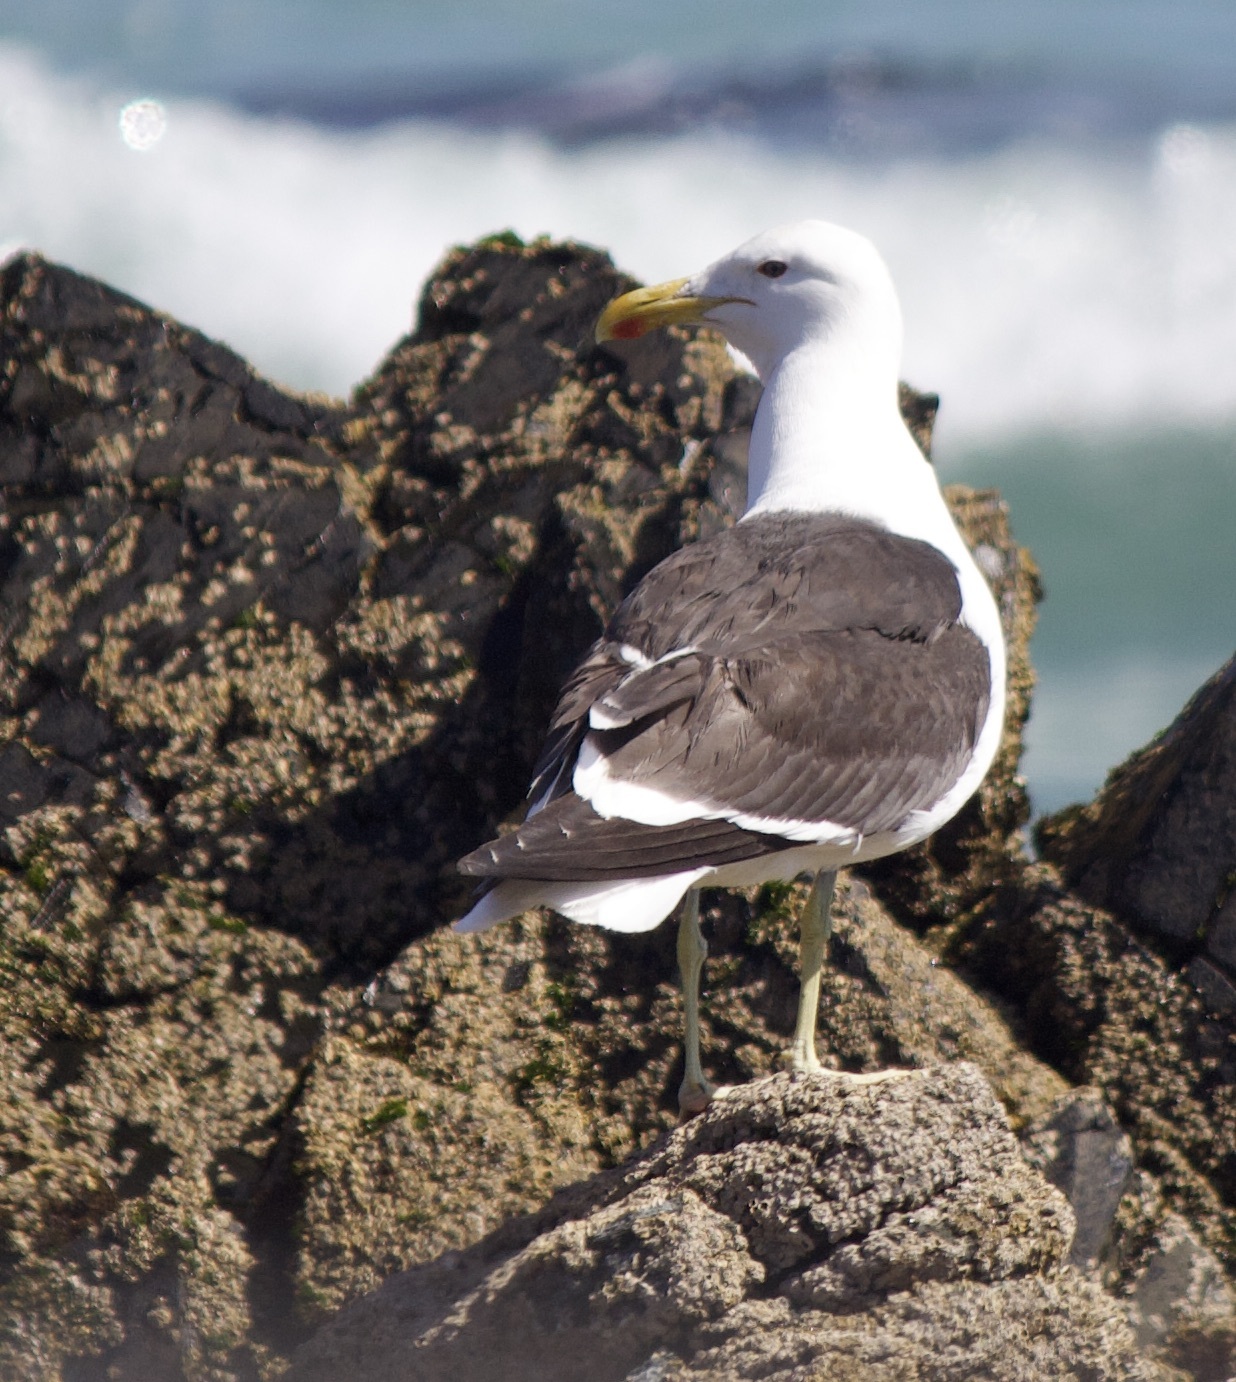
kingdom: Animalia
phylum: Chordata
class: Aves
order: Charadriiformes
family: Laridae
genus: Larus
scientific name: Larus dominicanus
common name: Kelp gull
